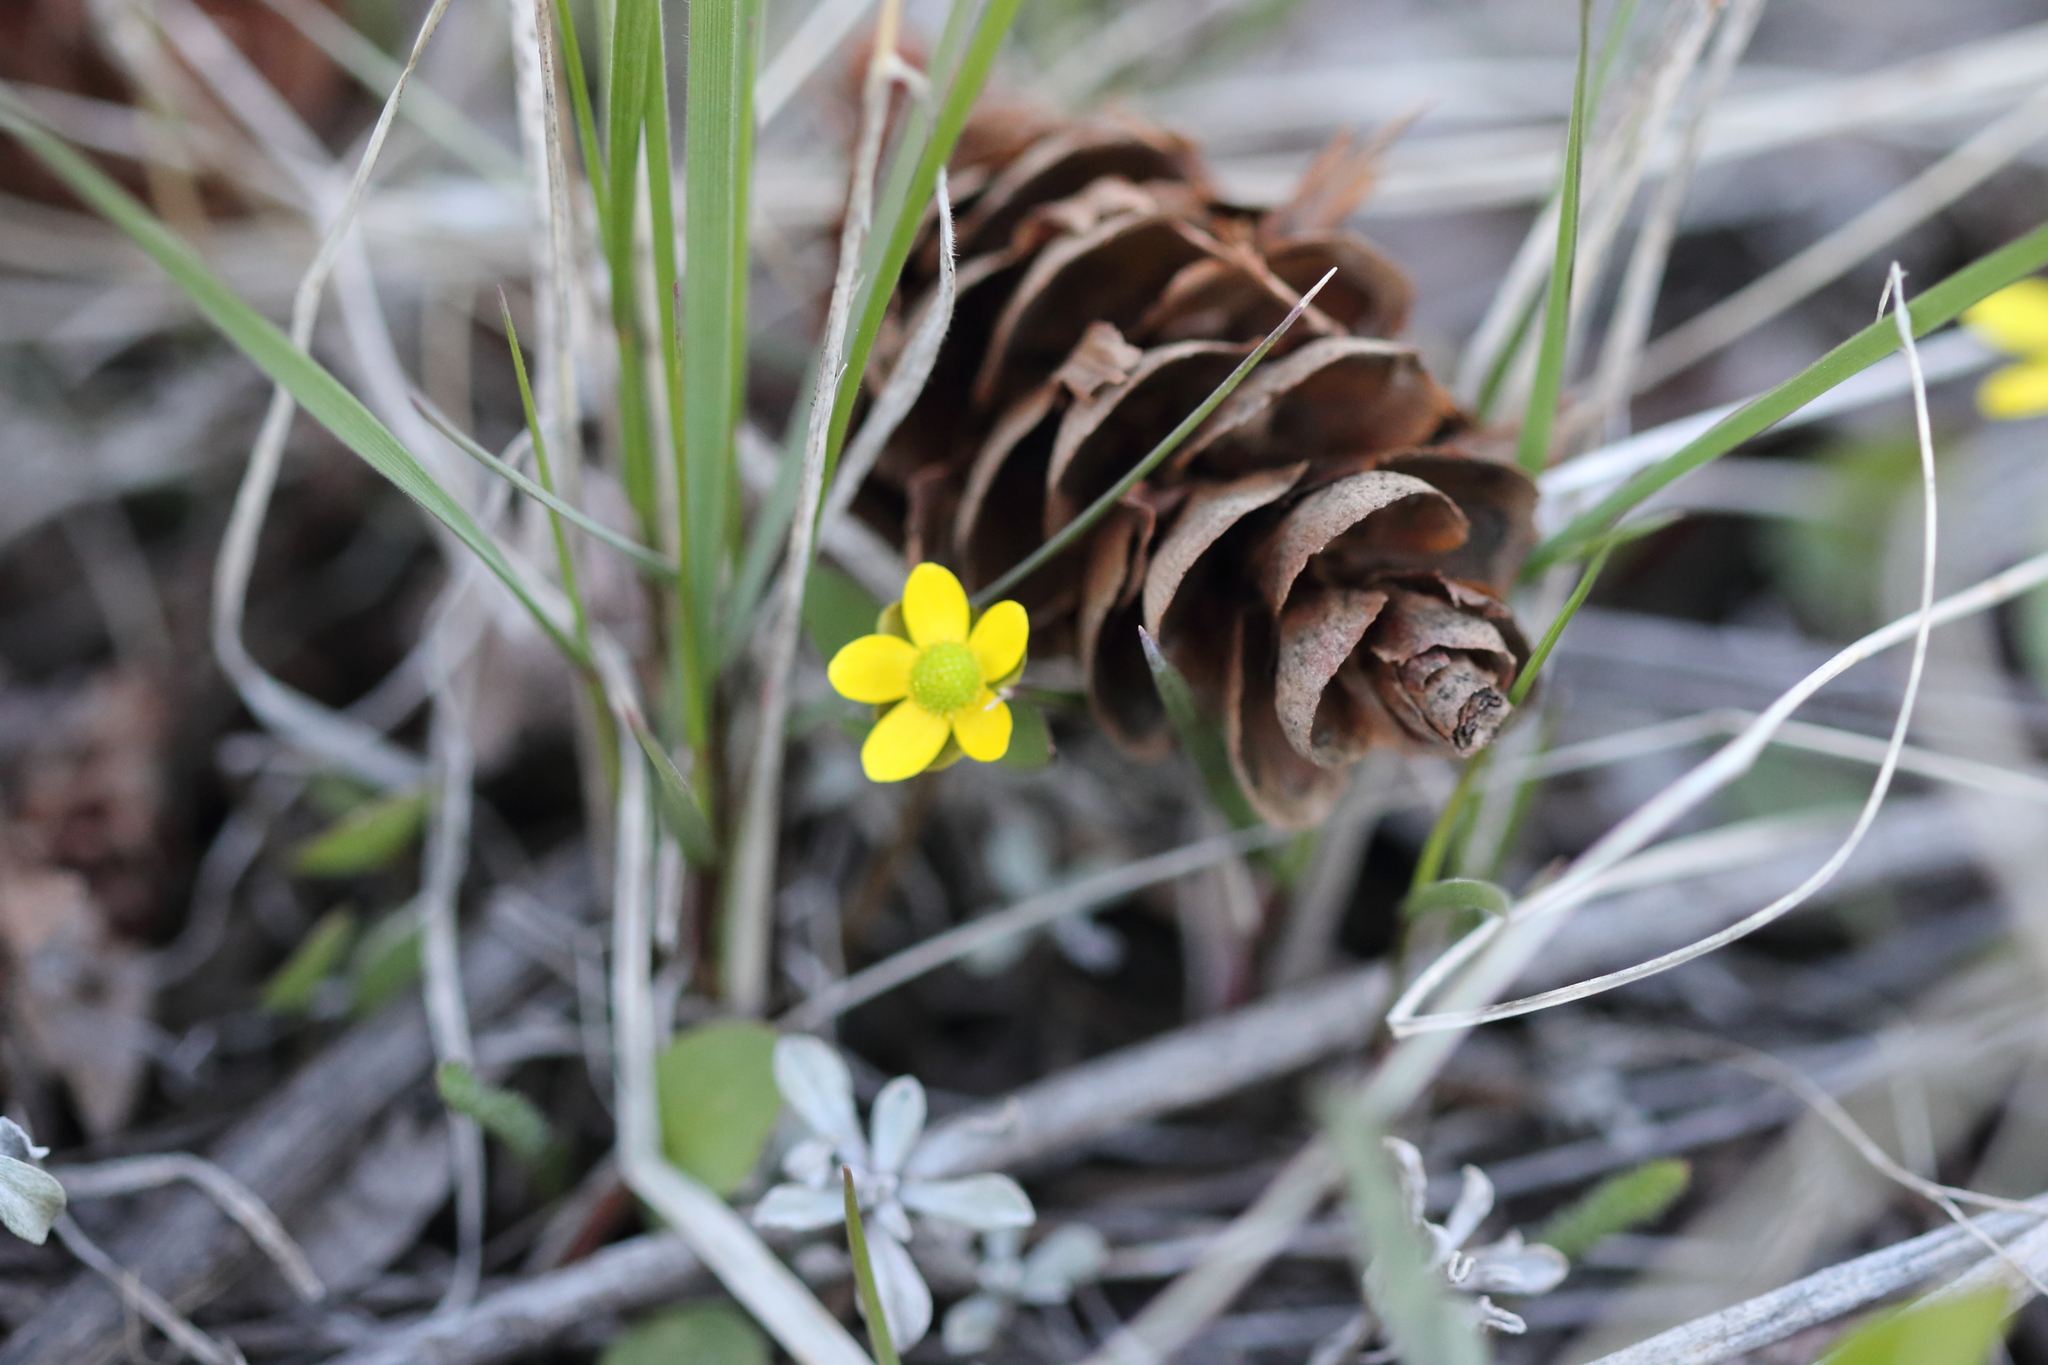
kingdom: Plantae
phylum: Tracheophyta
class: Magnoliopsida
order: Ranunculales
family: Ranunculaceae
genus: Ranunculus
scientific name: Ranunculus glaberrimus
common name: Sagebrush buttercup
